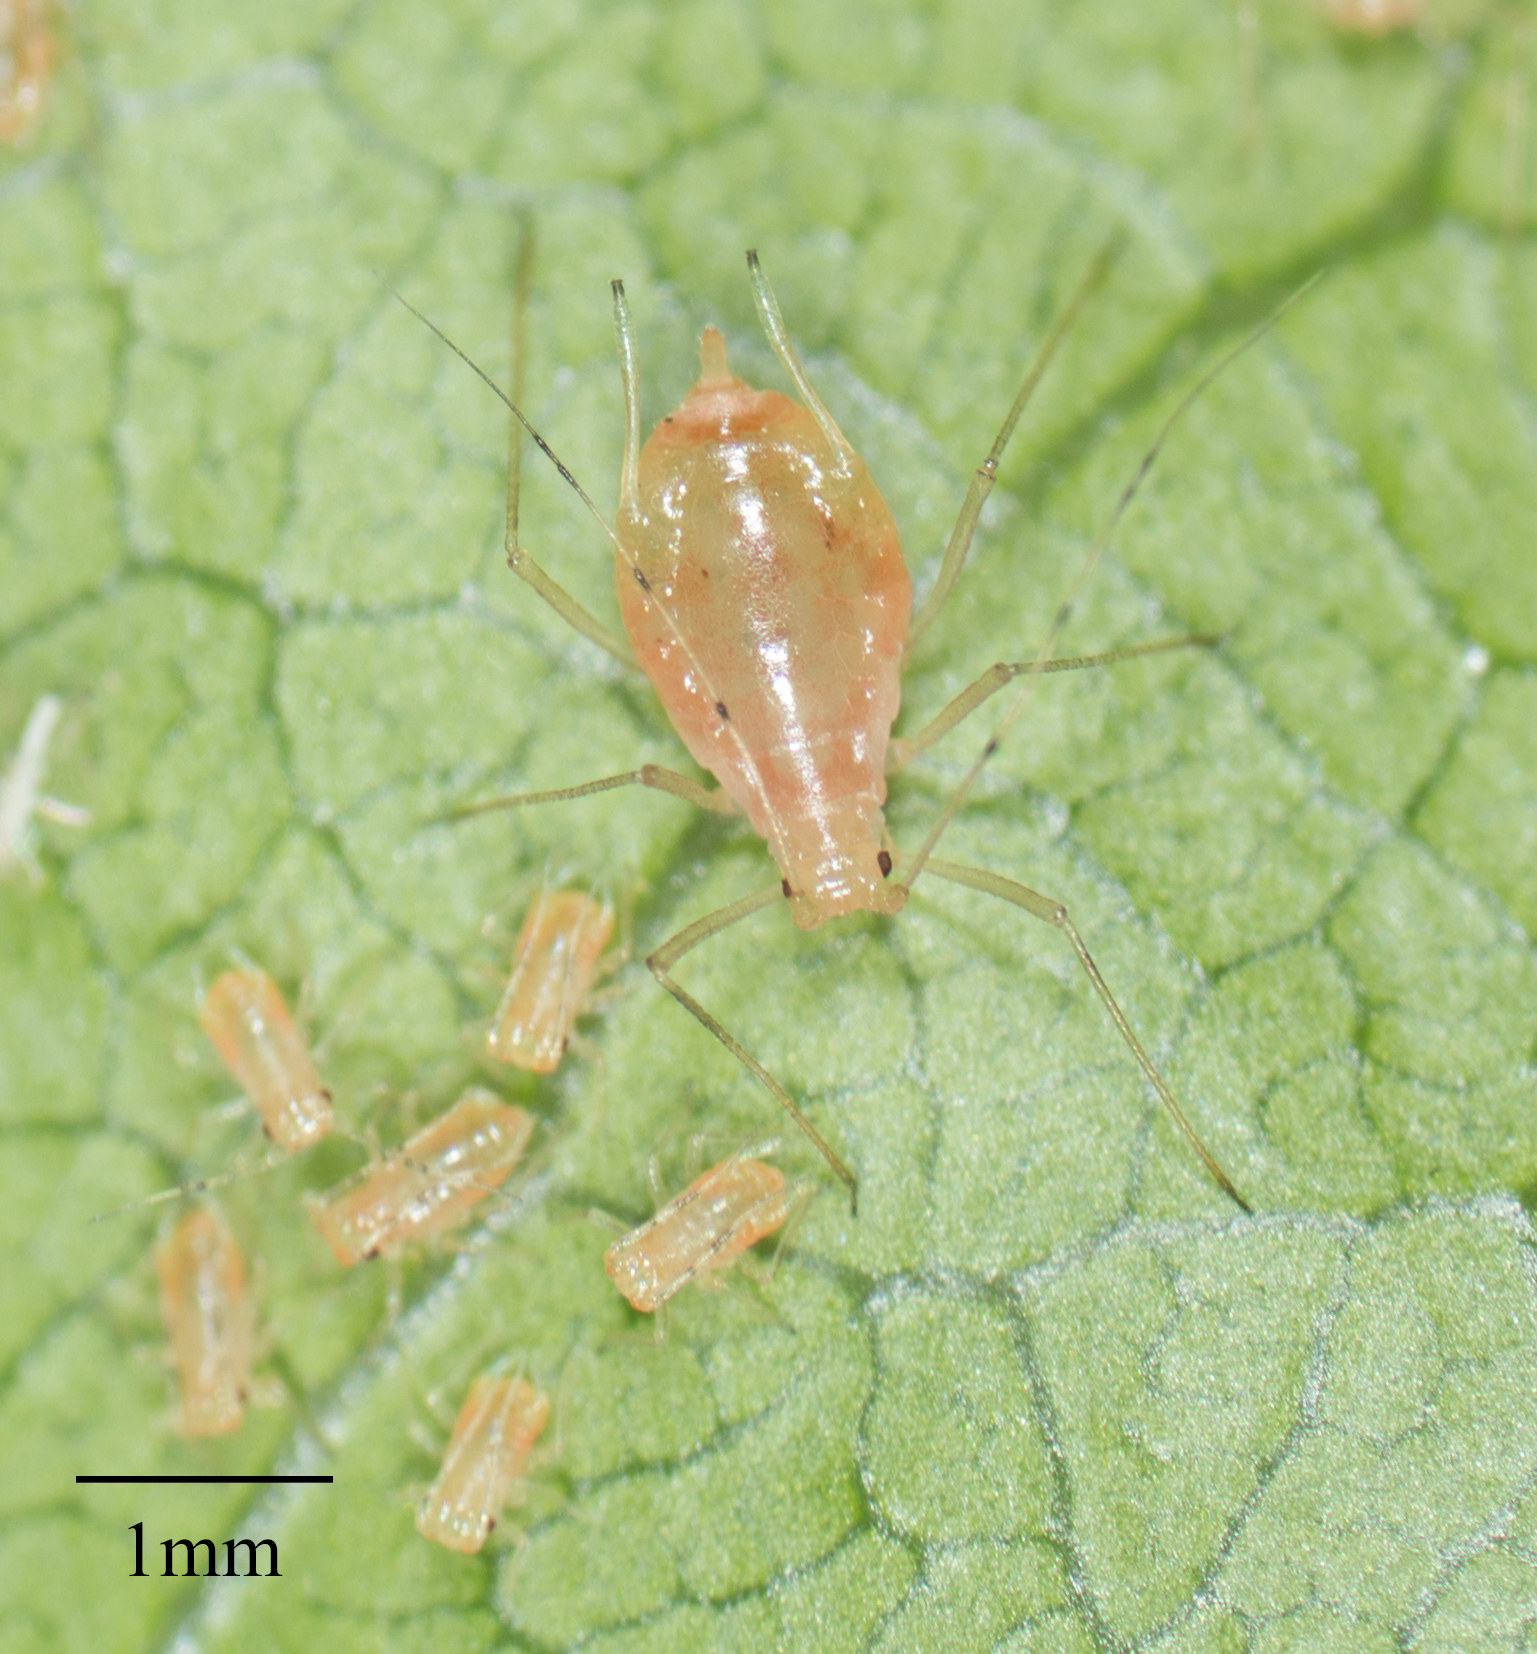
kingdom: Animalia
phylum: Arthropoda
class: Insecta
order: Hemiptera
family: Aphididae
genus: Wahlgreniella
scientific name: Wahlgreniella nervata
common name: Pale green aphid
